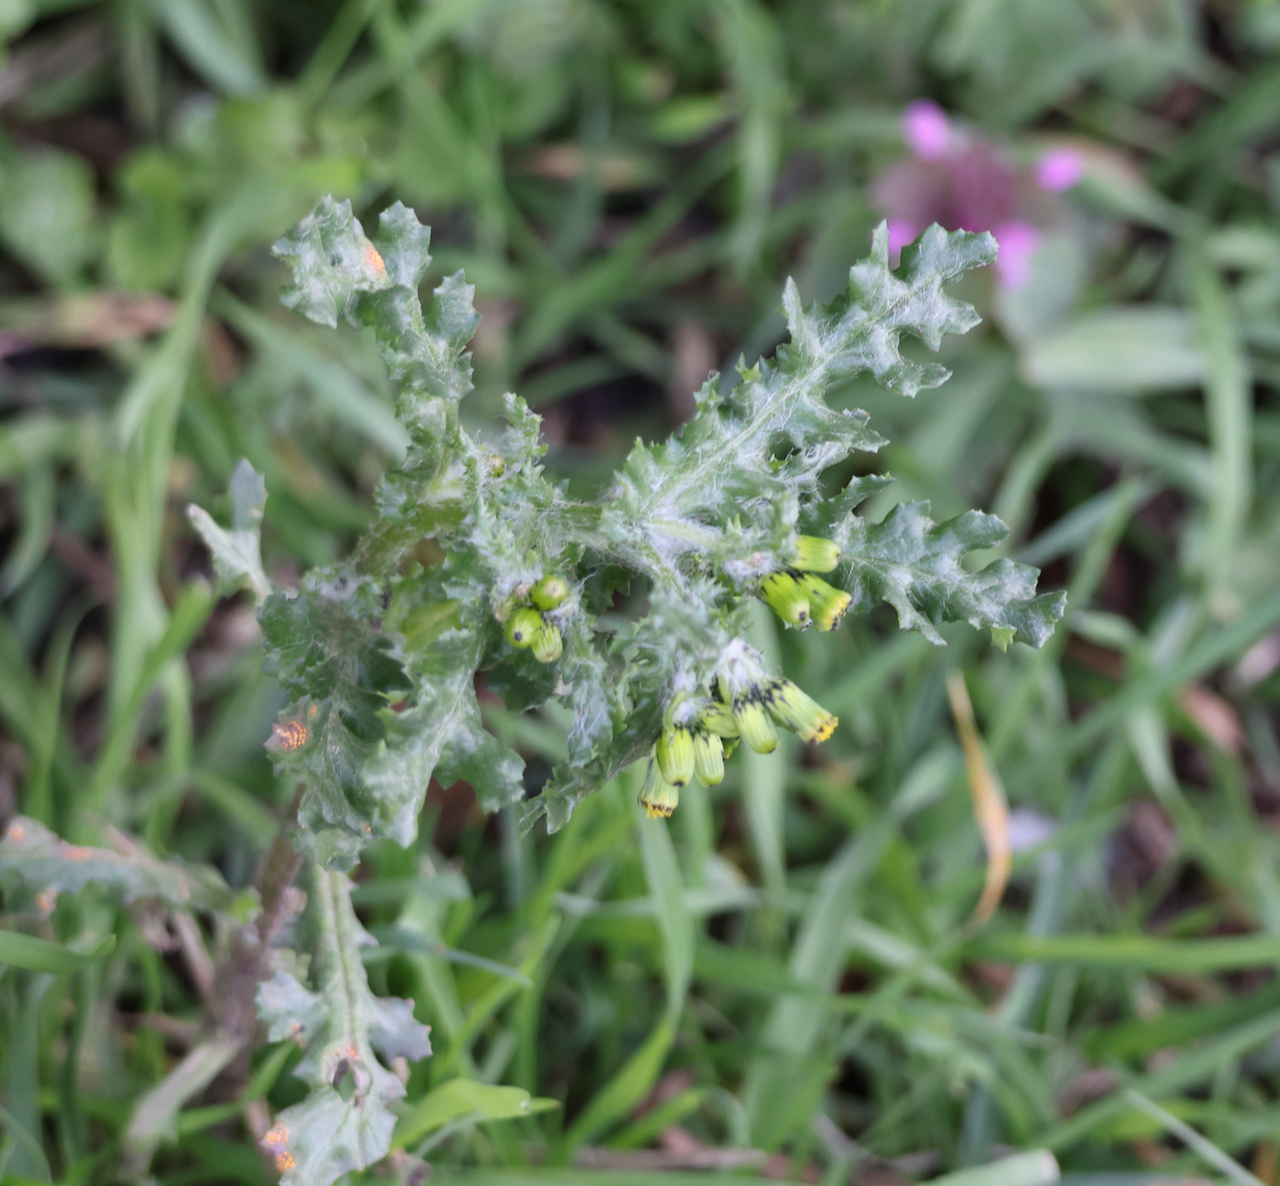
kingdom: Plantae
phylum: Tracheophyta
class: Magnoliopsida
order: Asterales
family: Asteraceae
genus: Senecio
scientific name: Senecio vulgaris
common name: Old-man-in-the-spring
